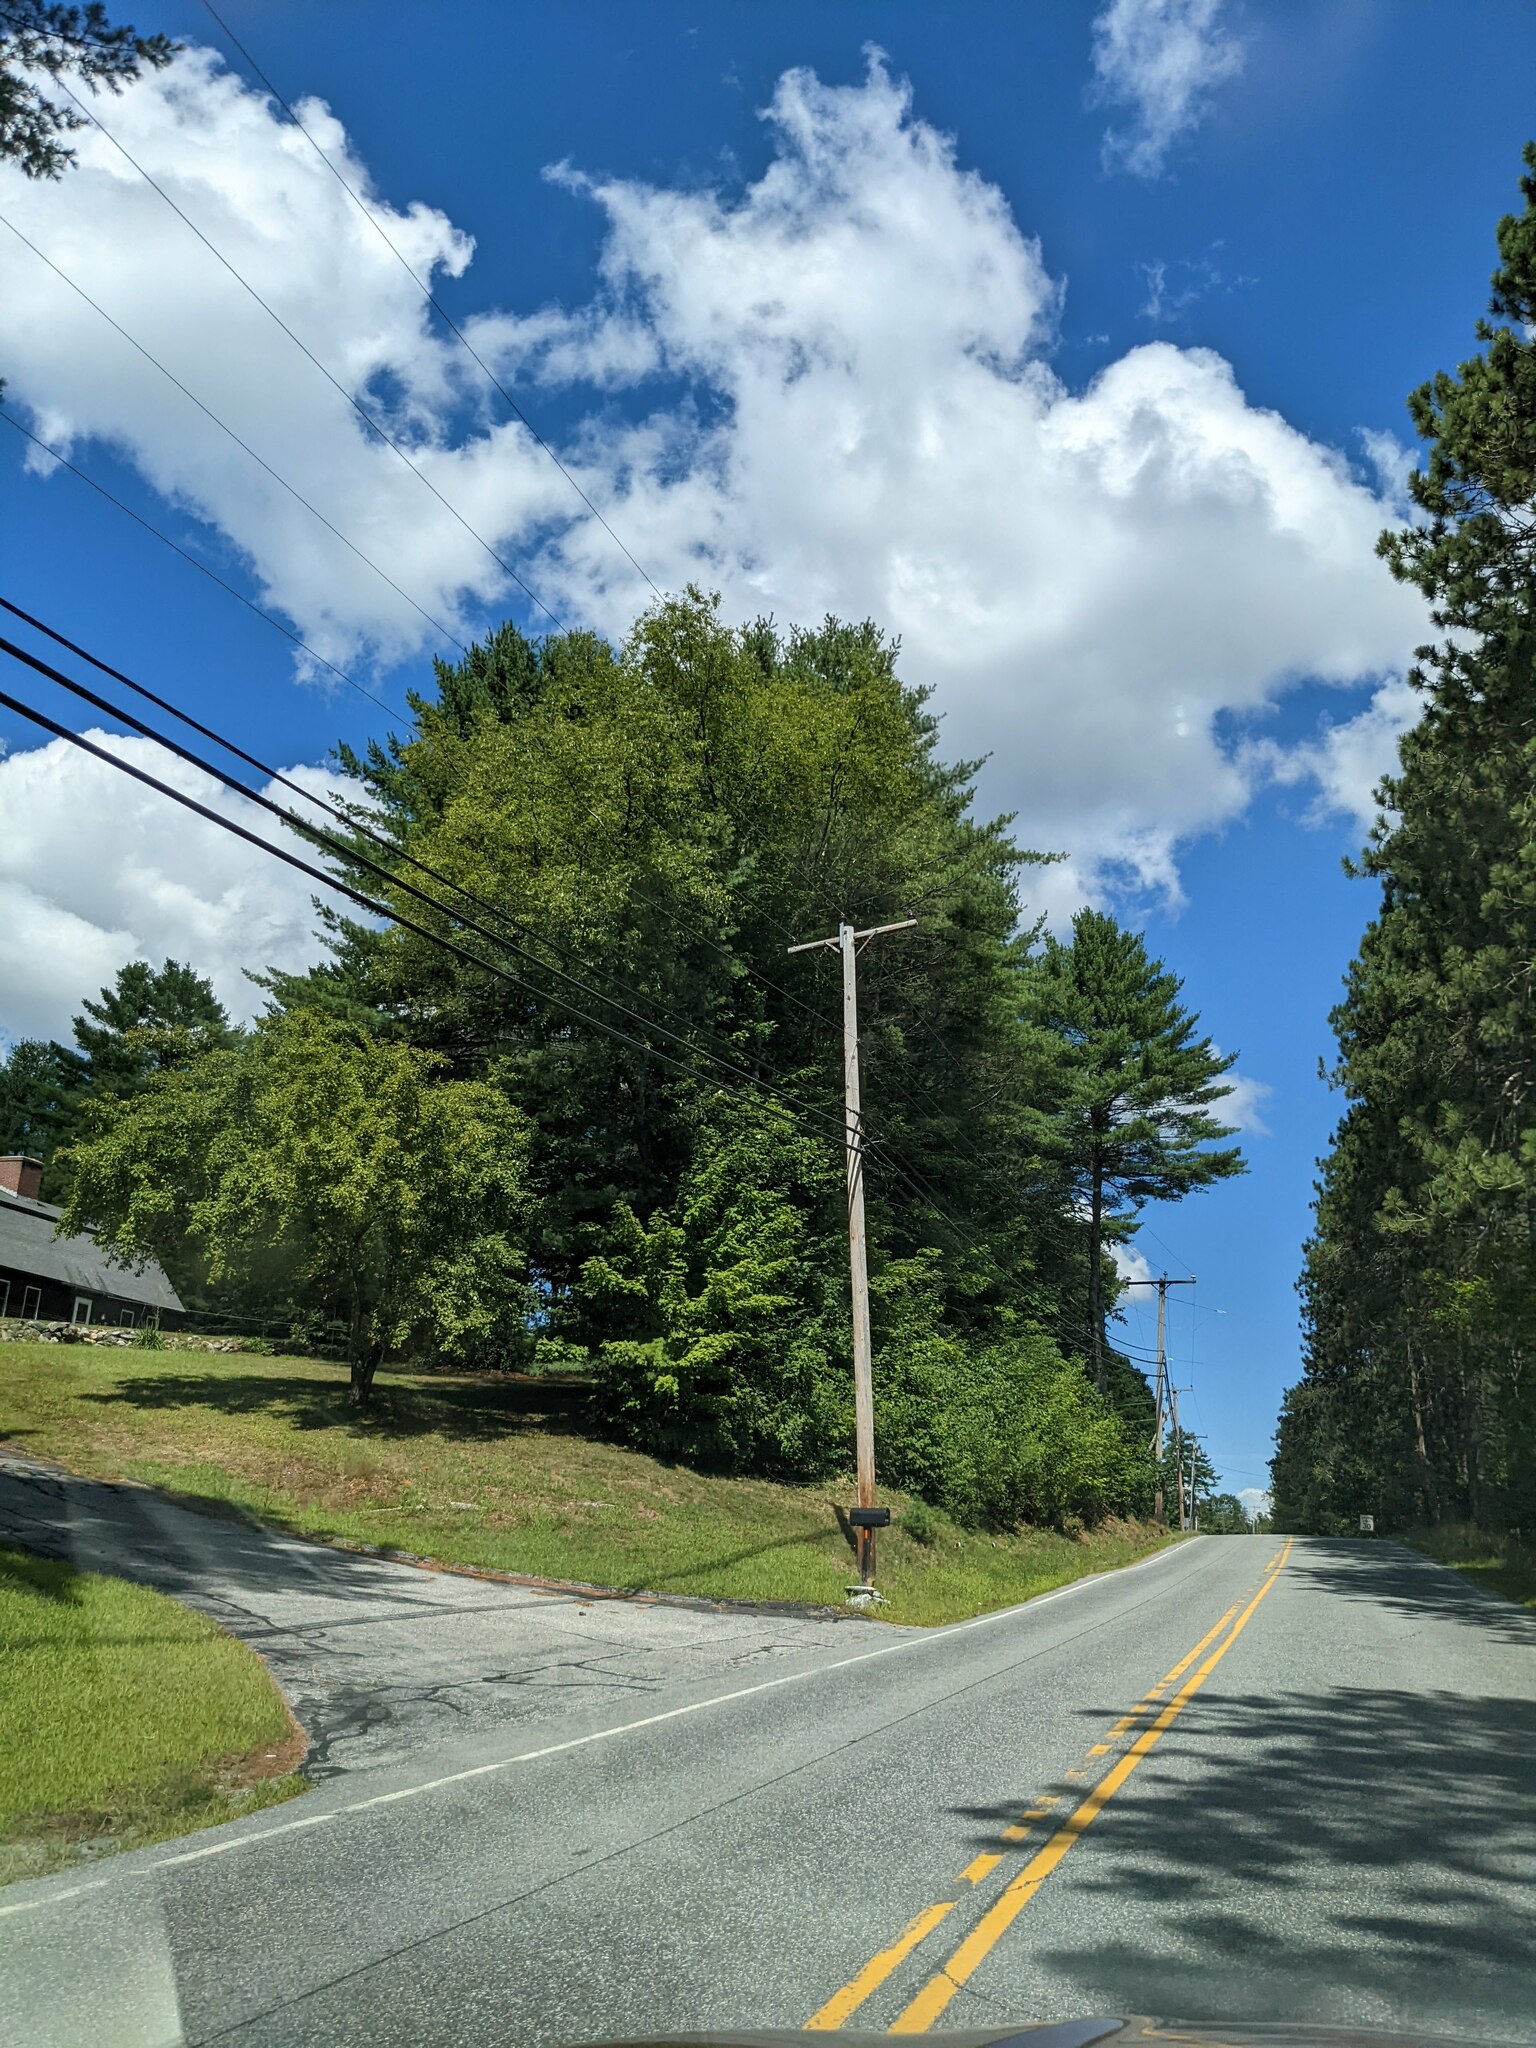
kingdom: Plantae
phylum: Tracheophyta
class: Pinopsida
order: Pinales
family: Pinaceae
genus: Pinus
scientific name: Pinus strobus
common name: Weymouth pine
